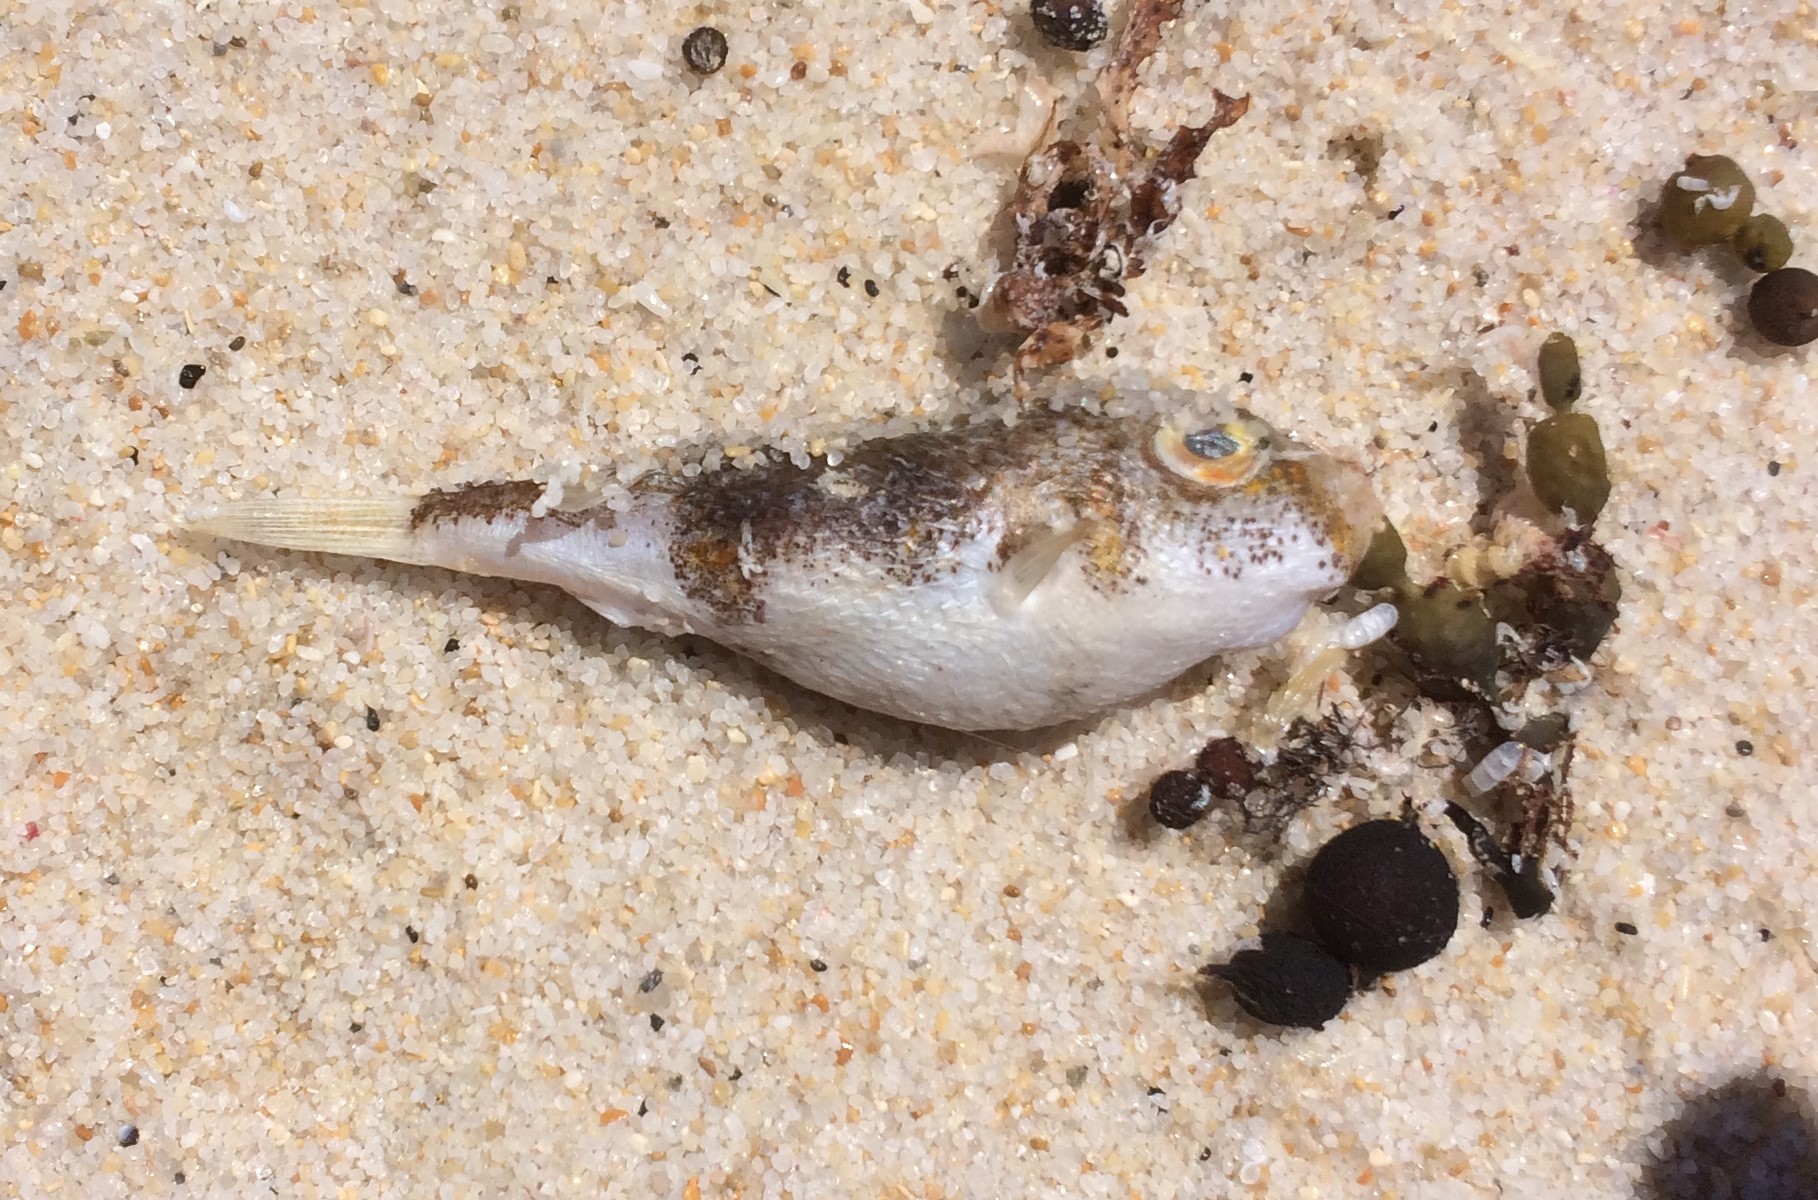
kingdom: Animalia
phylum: Chordata
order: Tetraodontiformes
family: Tetraodontidae
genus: Polyspina
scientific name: Polyspina piosae
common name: Orange-barred pufferfish
